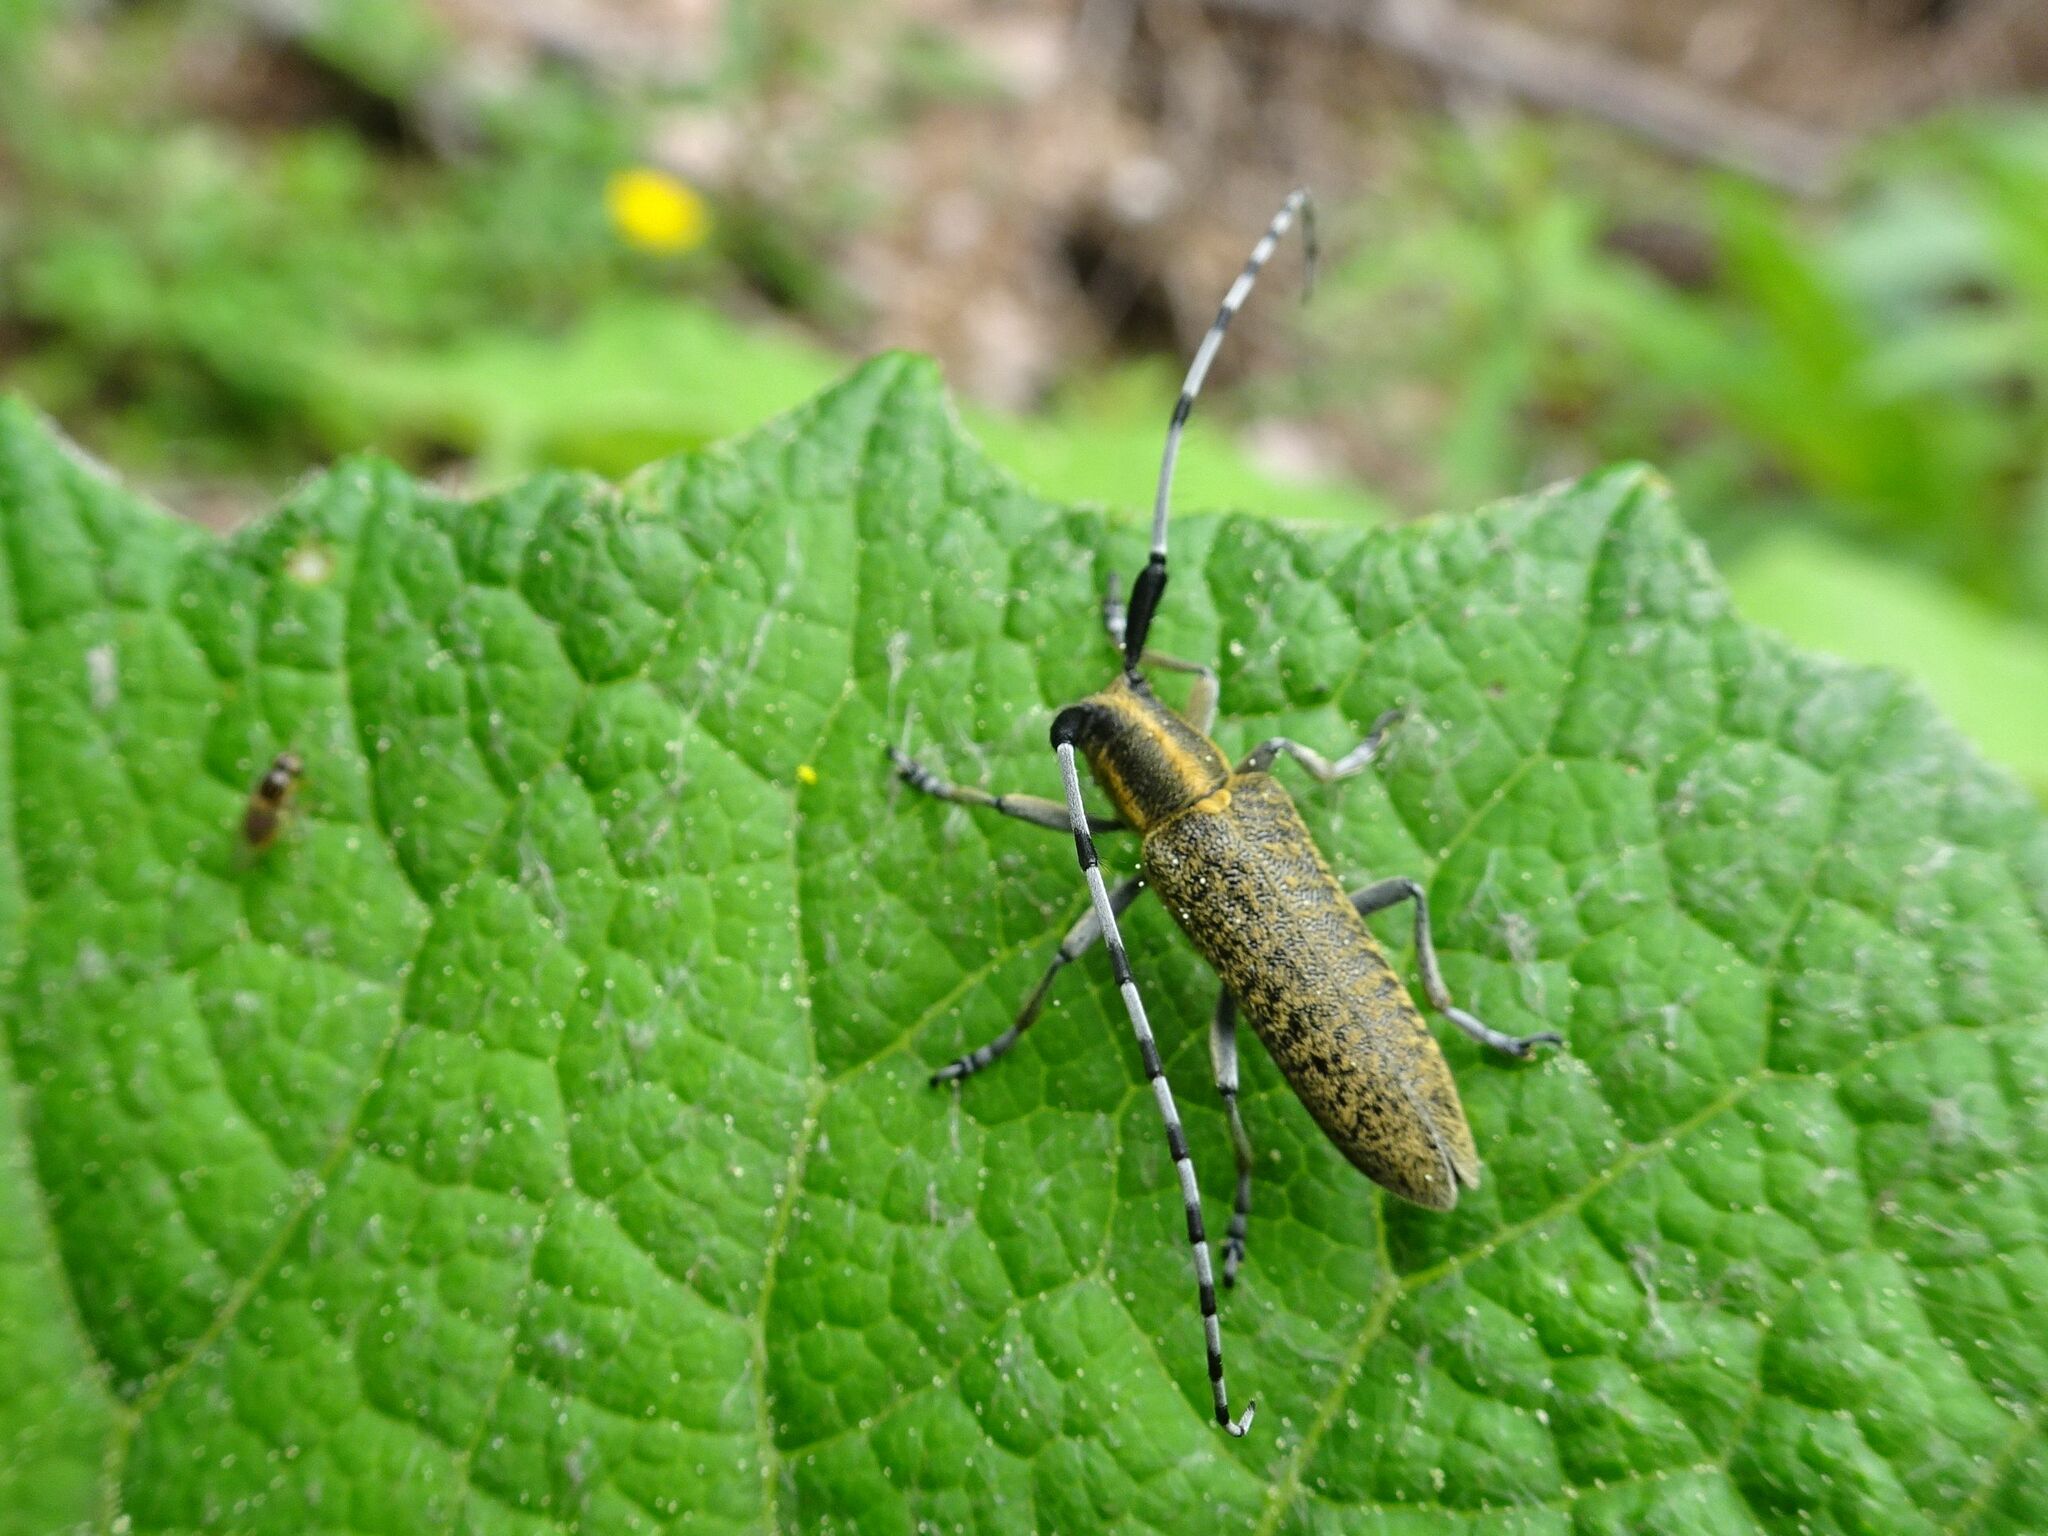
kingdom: Animalia
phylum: Arthropoda
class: Insecta
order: Coleoptera
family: Cerambycidae
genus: Agapanthia
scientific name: Agapanthia villosoviridescens
